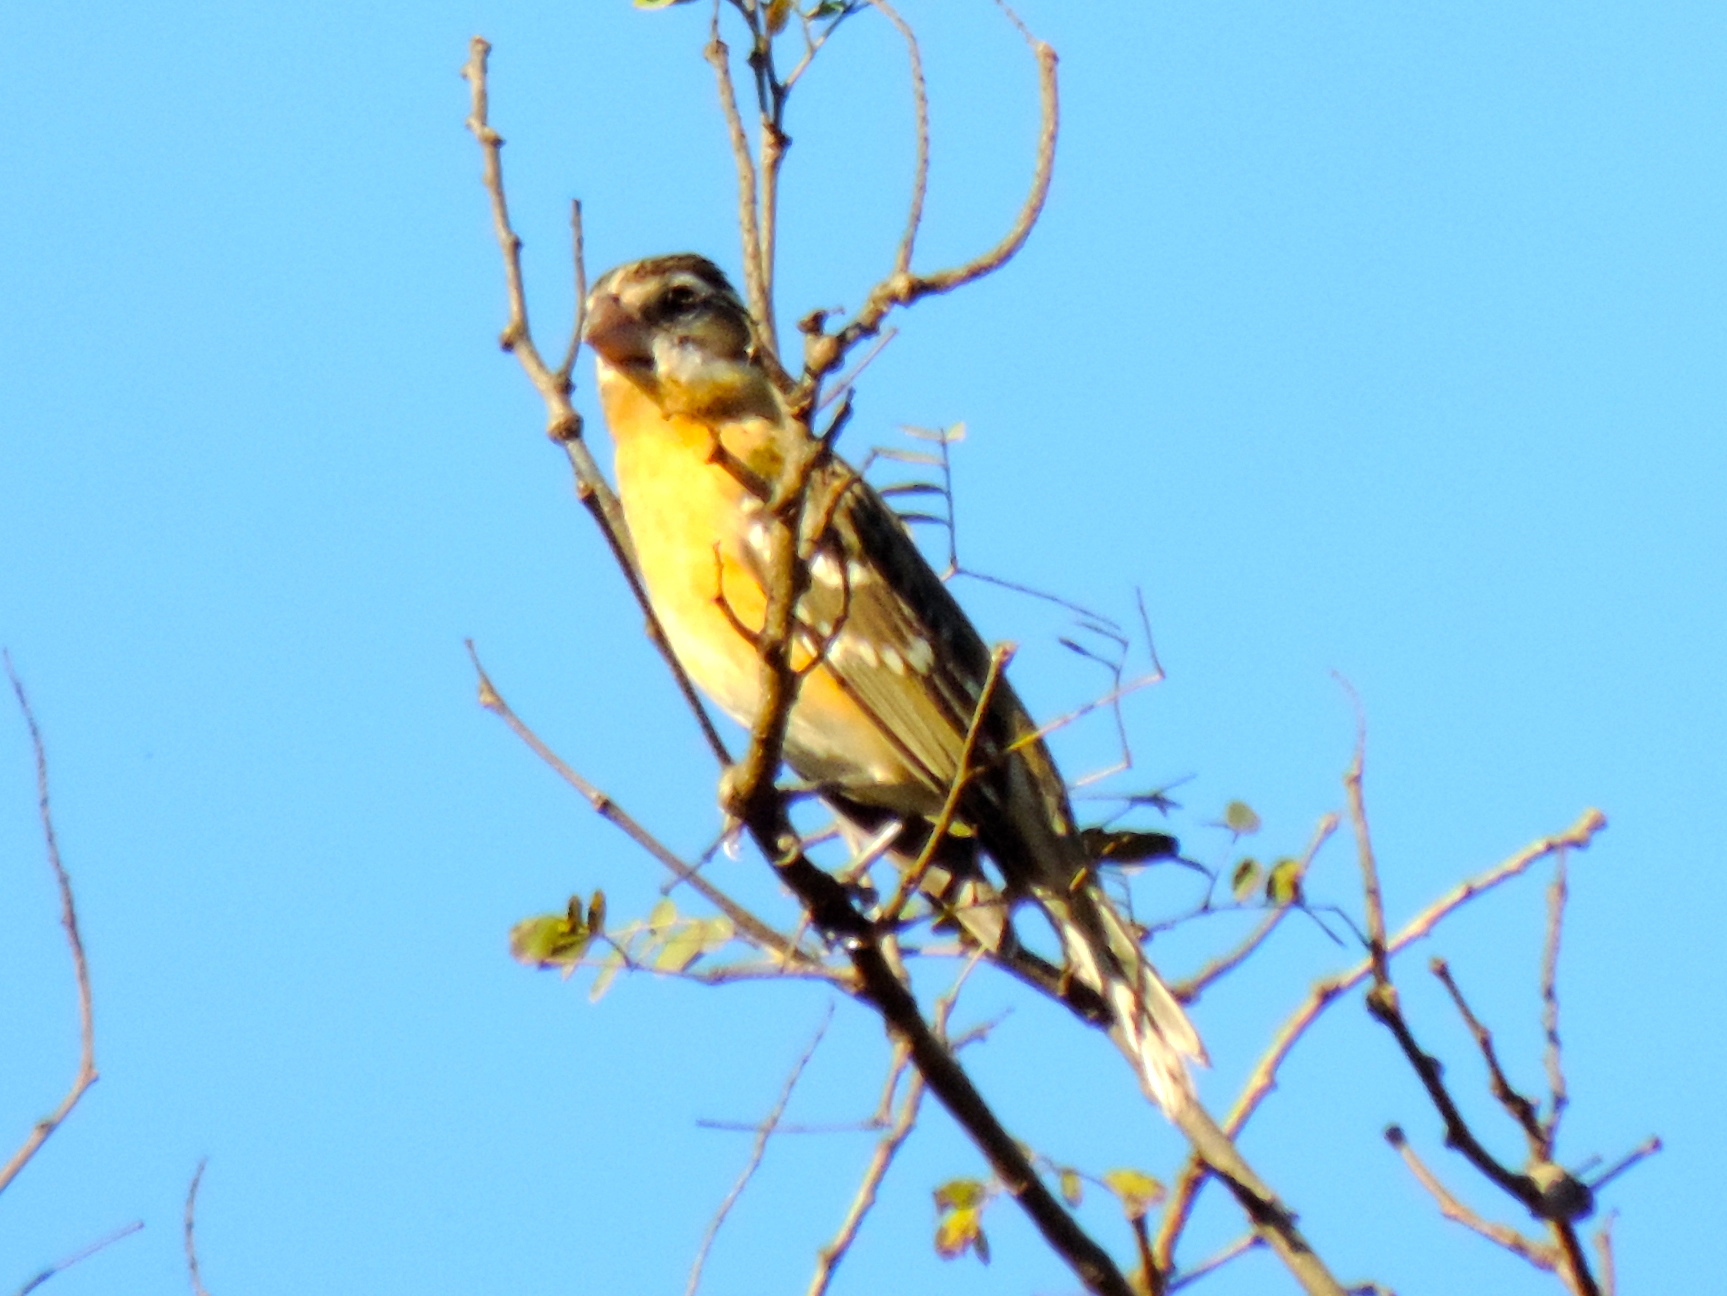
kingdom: Animalia
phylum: Chordata
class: Aves
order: Passeriformes
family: Cardinalidae
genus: Pheucticus
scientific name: Pheucticus melanocephalus
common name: Black-headed grosbeak
